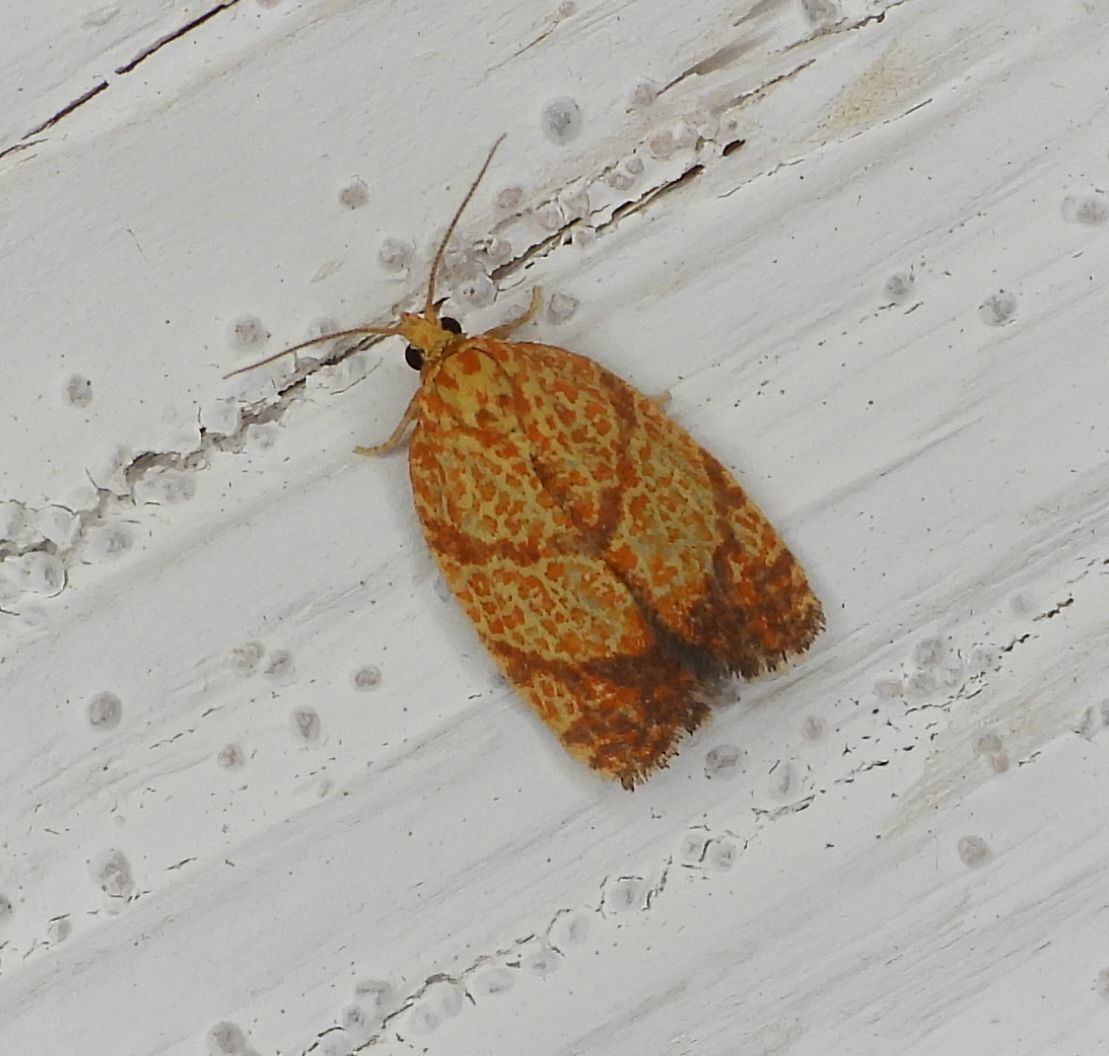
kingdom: Animalia
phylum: Arthropoda
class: Insecta
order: Lepidoptera
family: Tortricidae
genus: Argyrotaenia
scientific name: Argyrotaenia quadrifasciana
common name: Four-lined leafroller moth
